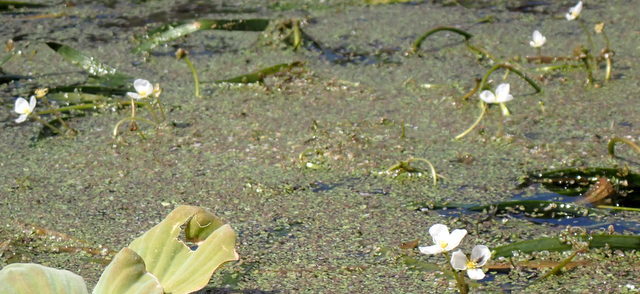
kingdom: Plantae
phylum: Tracheophyta
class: Liliopsida
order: Alismatales
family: Alismataceae
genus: Sagittaria
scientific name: Sagittaria kurziana
